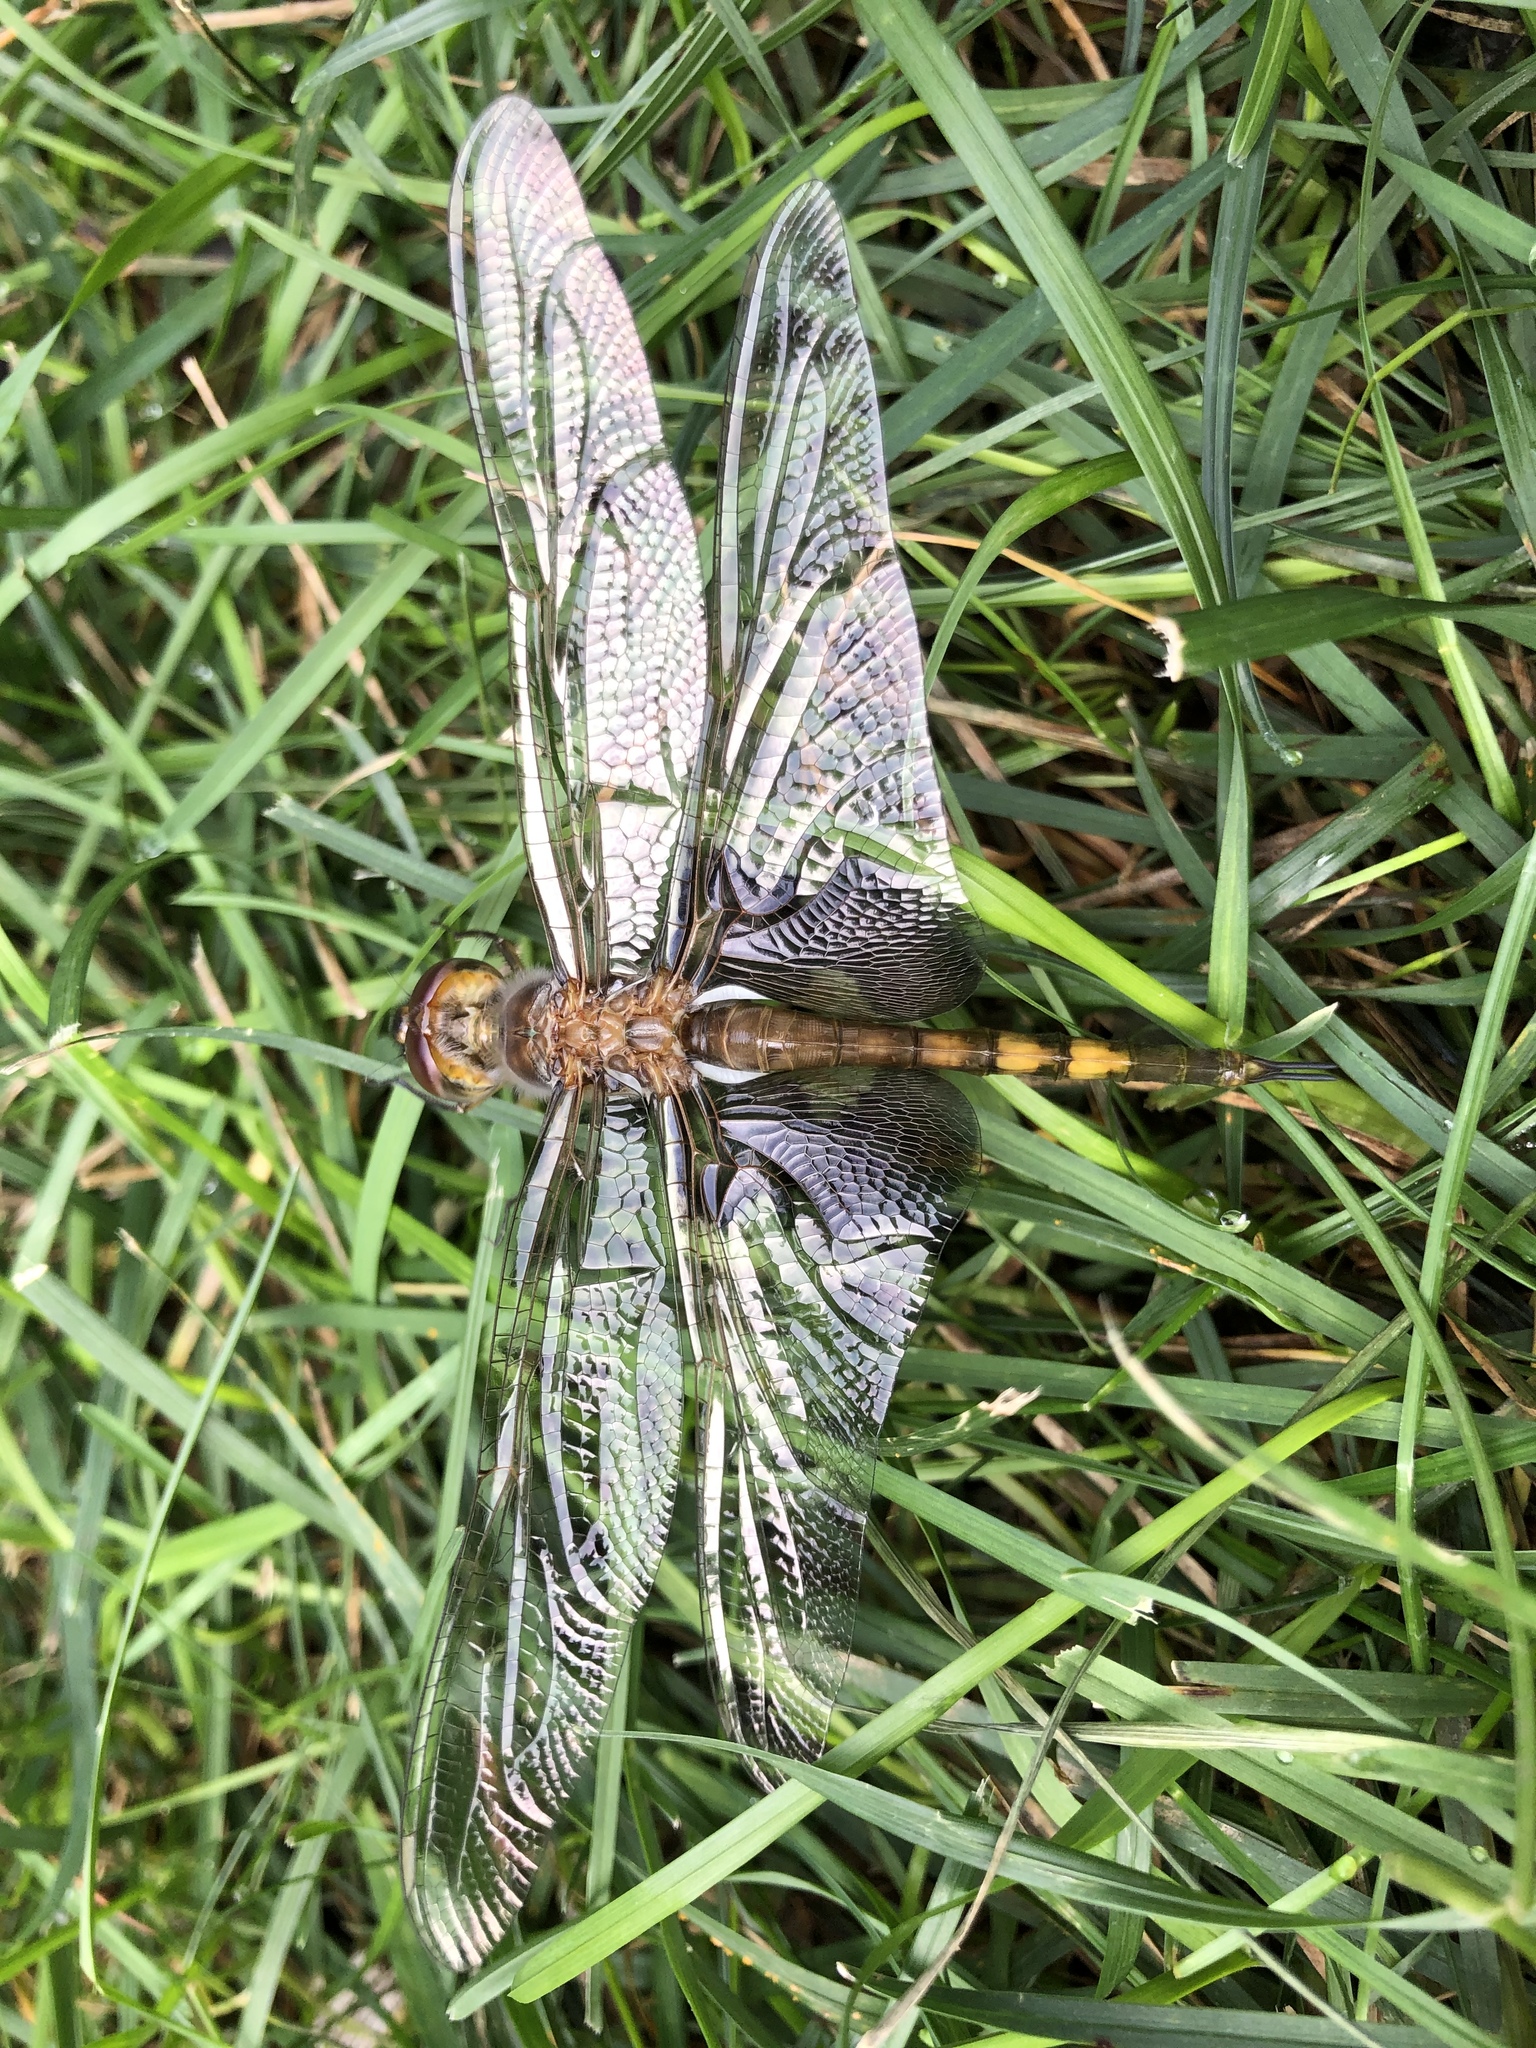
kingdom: Animalia
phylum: Arthropoda
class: Insecta
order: Odonata
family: Libellulidae
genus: Tramea
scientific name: Tramea lacerata
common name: Black saddlebags
